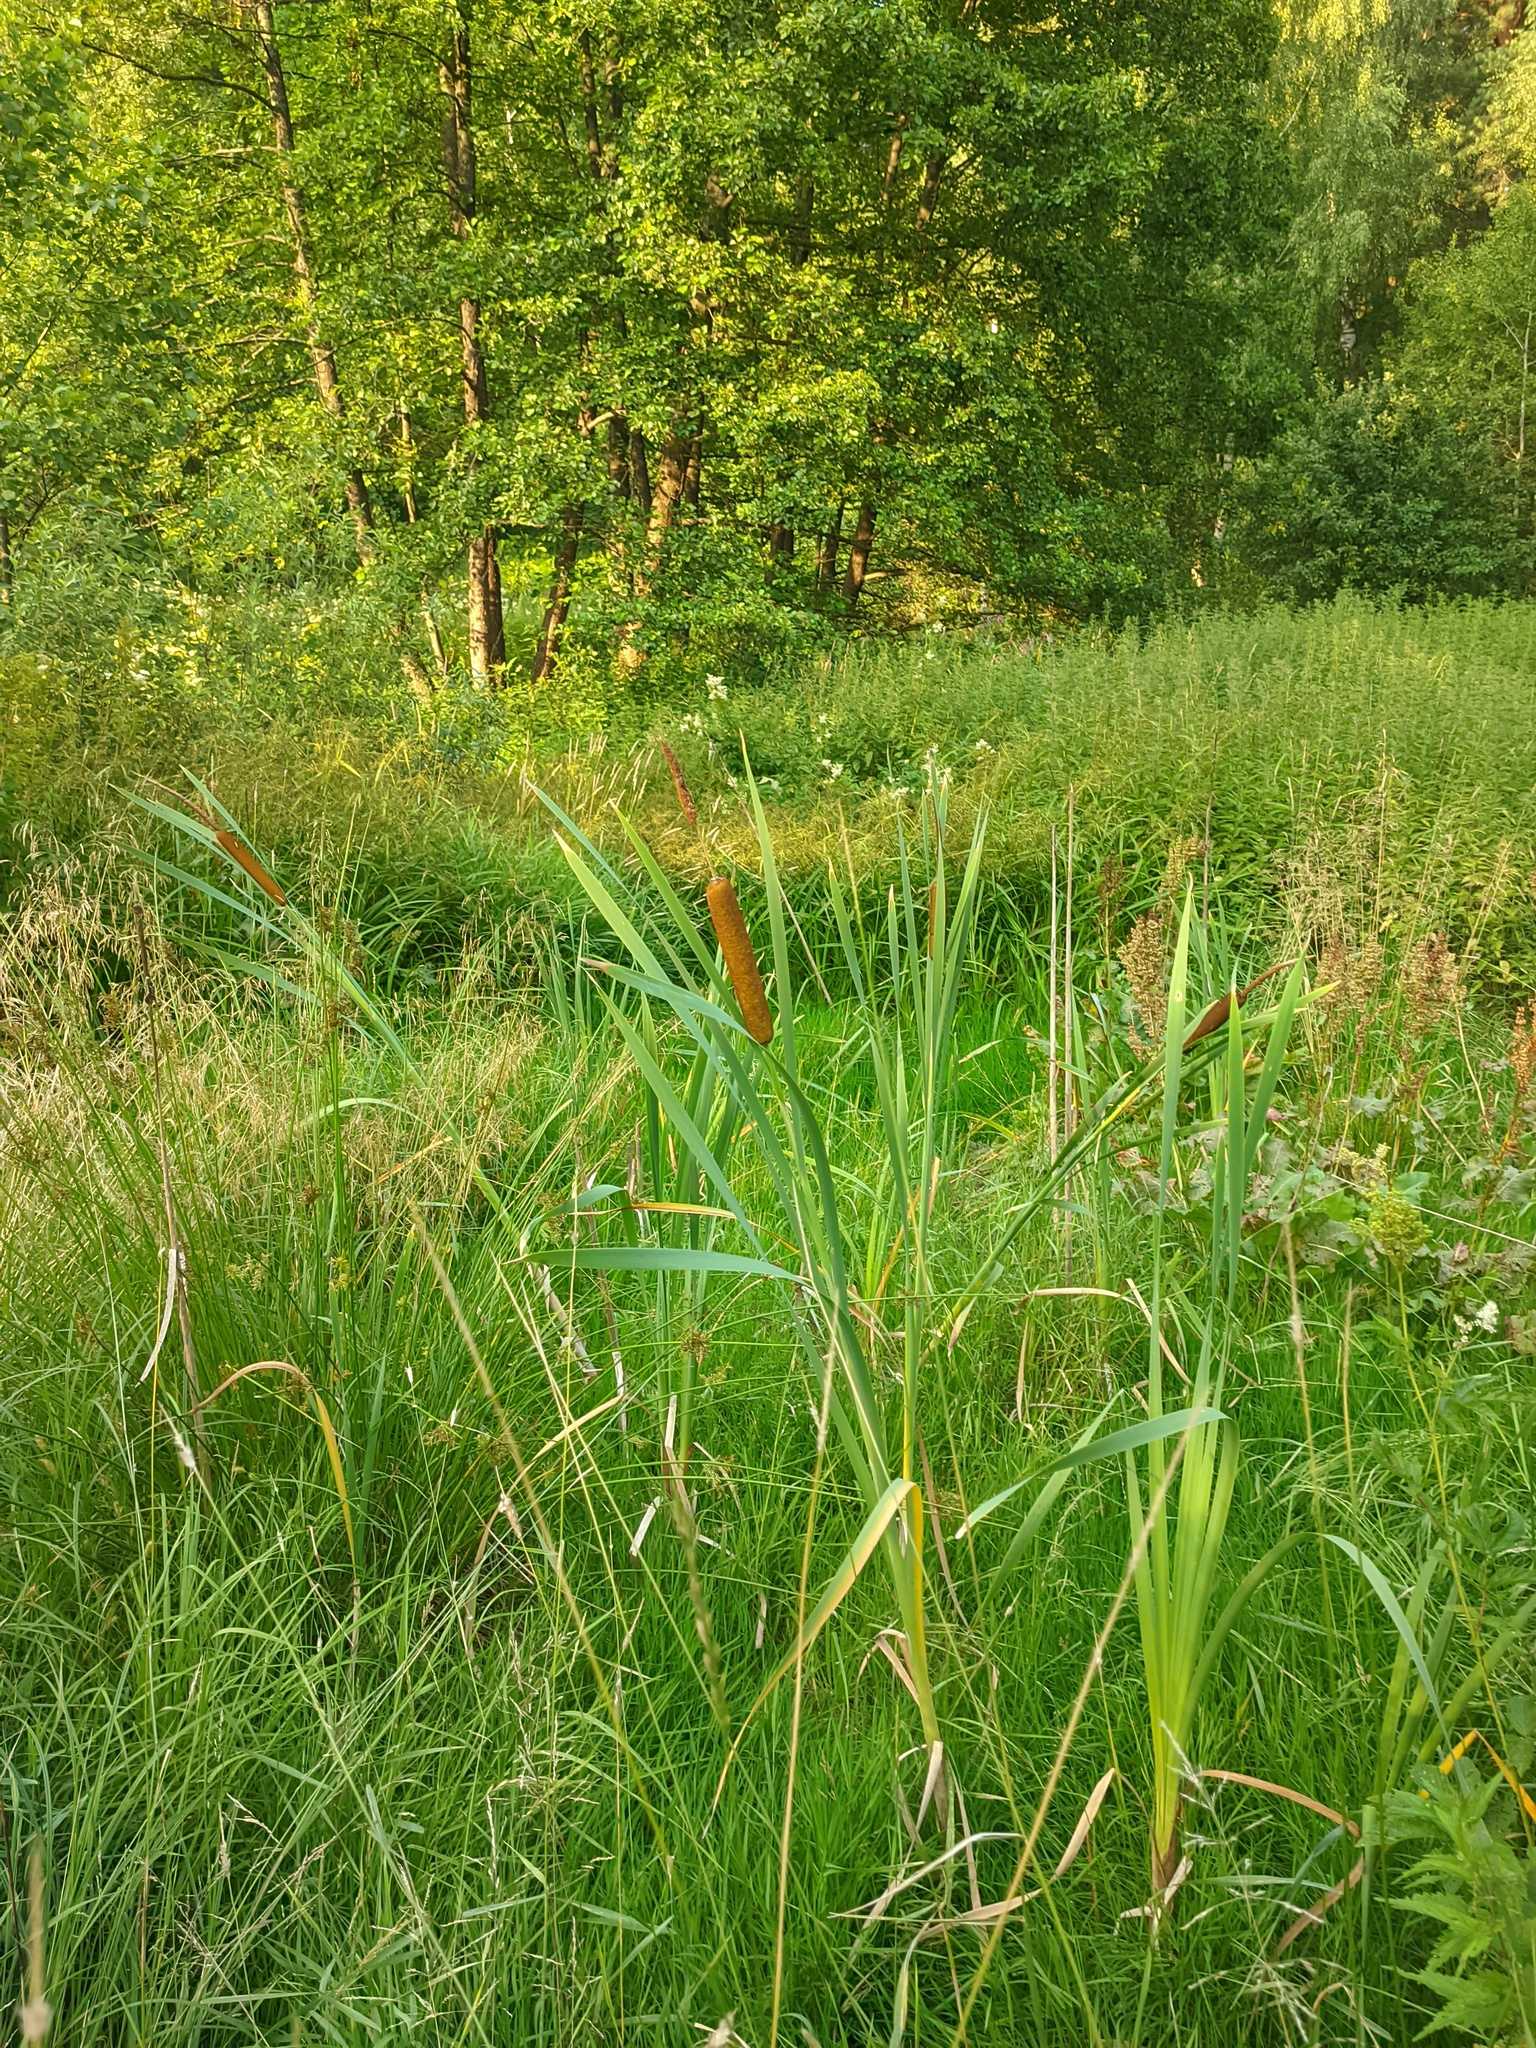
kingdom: Plantae
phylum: Tracheophyta
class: Liliopsida
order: Poales
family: Typhaceae
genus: Typha
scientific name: Typha latifolia
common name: Broadleaf cattail
